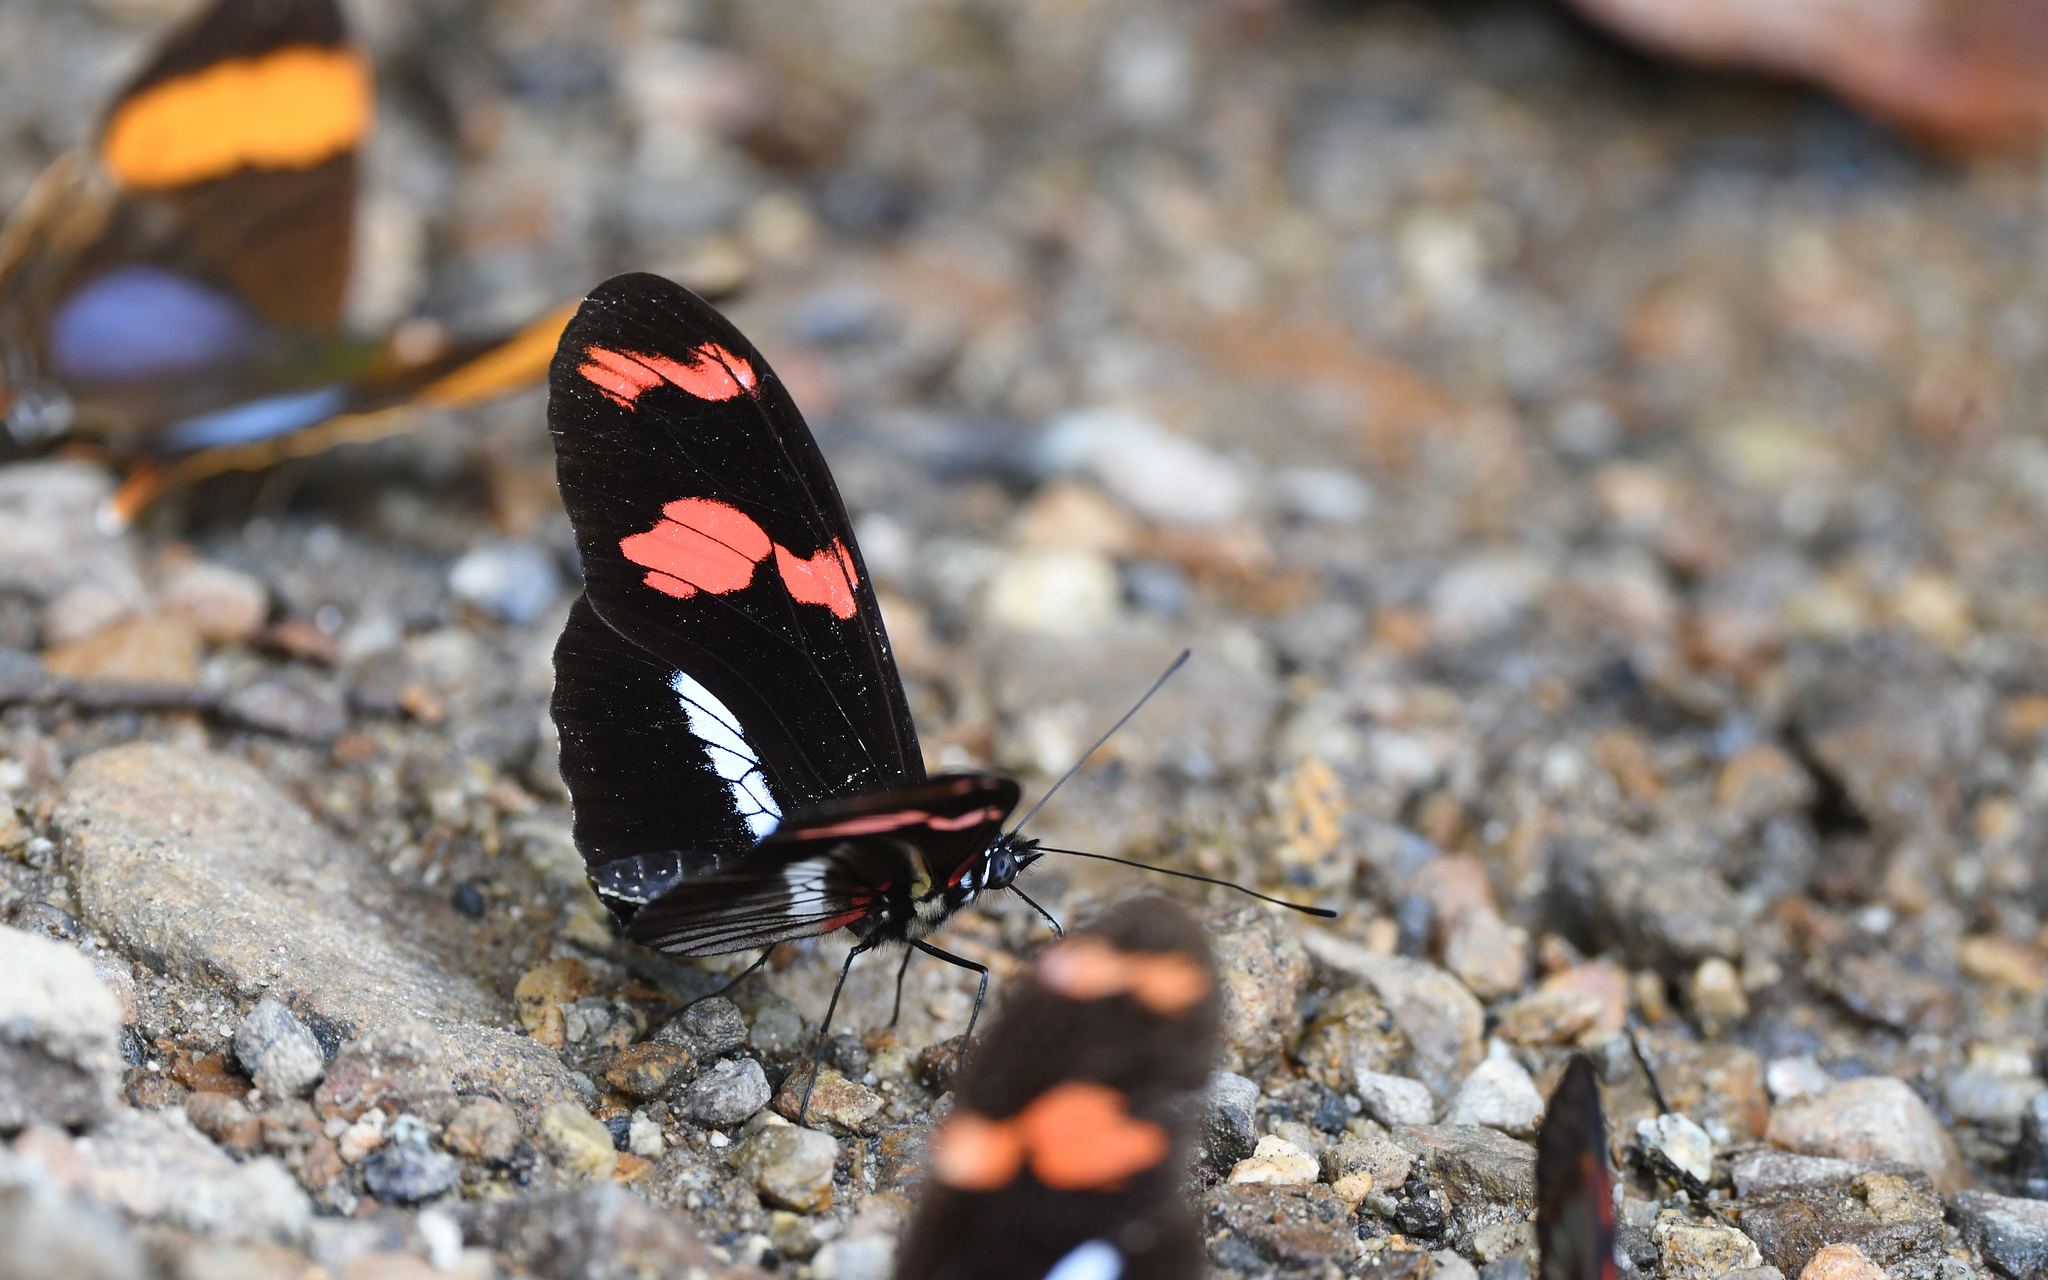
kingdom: Animalia
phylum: Arthropoda
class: Insecta
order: Lepidoptera
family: Nymphalidae
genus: Heliconius
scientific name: Heliconius telesiphe
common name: Telesiphe longwing
